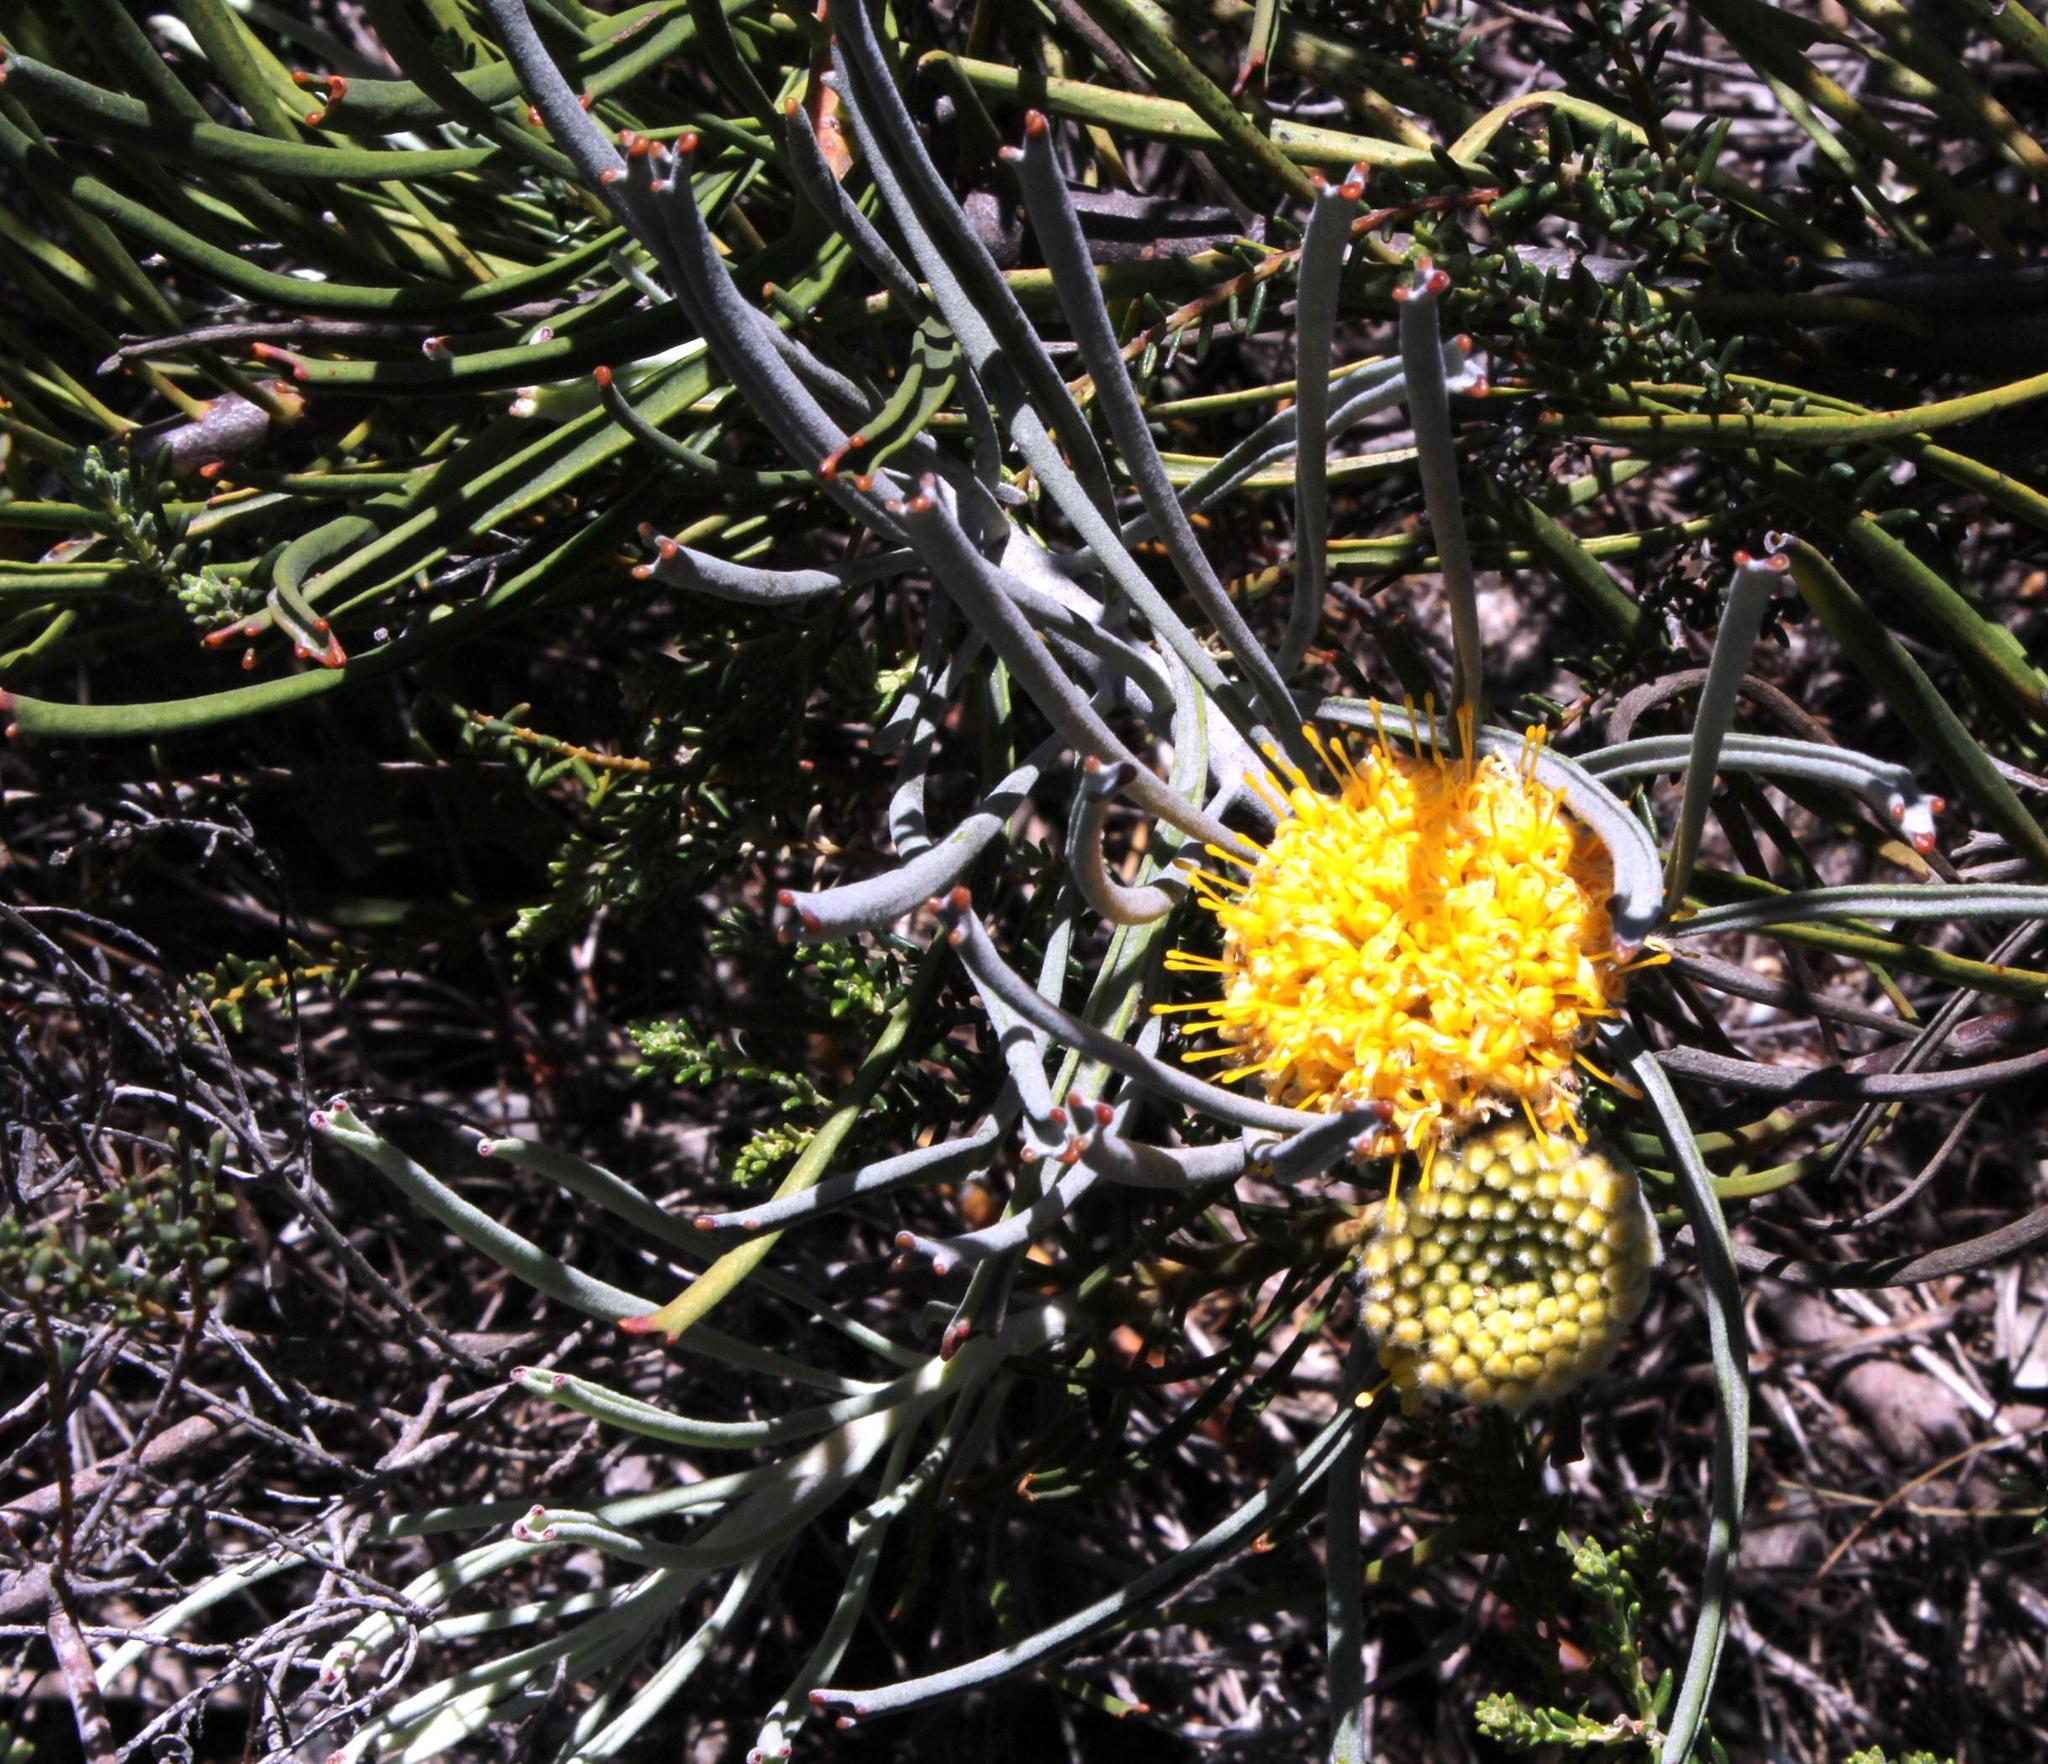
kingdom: Plantae
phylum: Tracheophyta
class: Magnoliopsida
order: Proteales
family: Proteaceae
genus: Leucospermum
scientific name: Leucospermum hypophyllocarpodendron
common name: Snakestem pincushion
